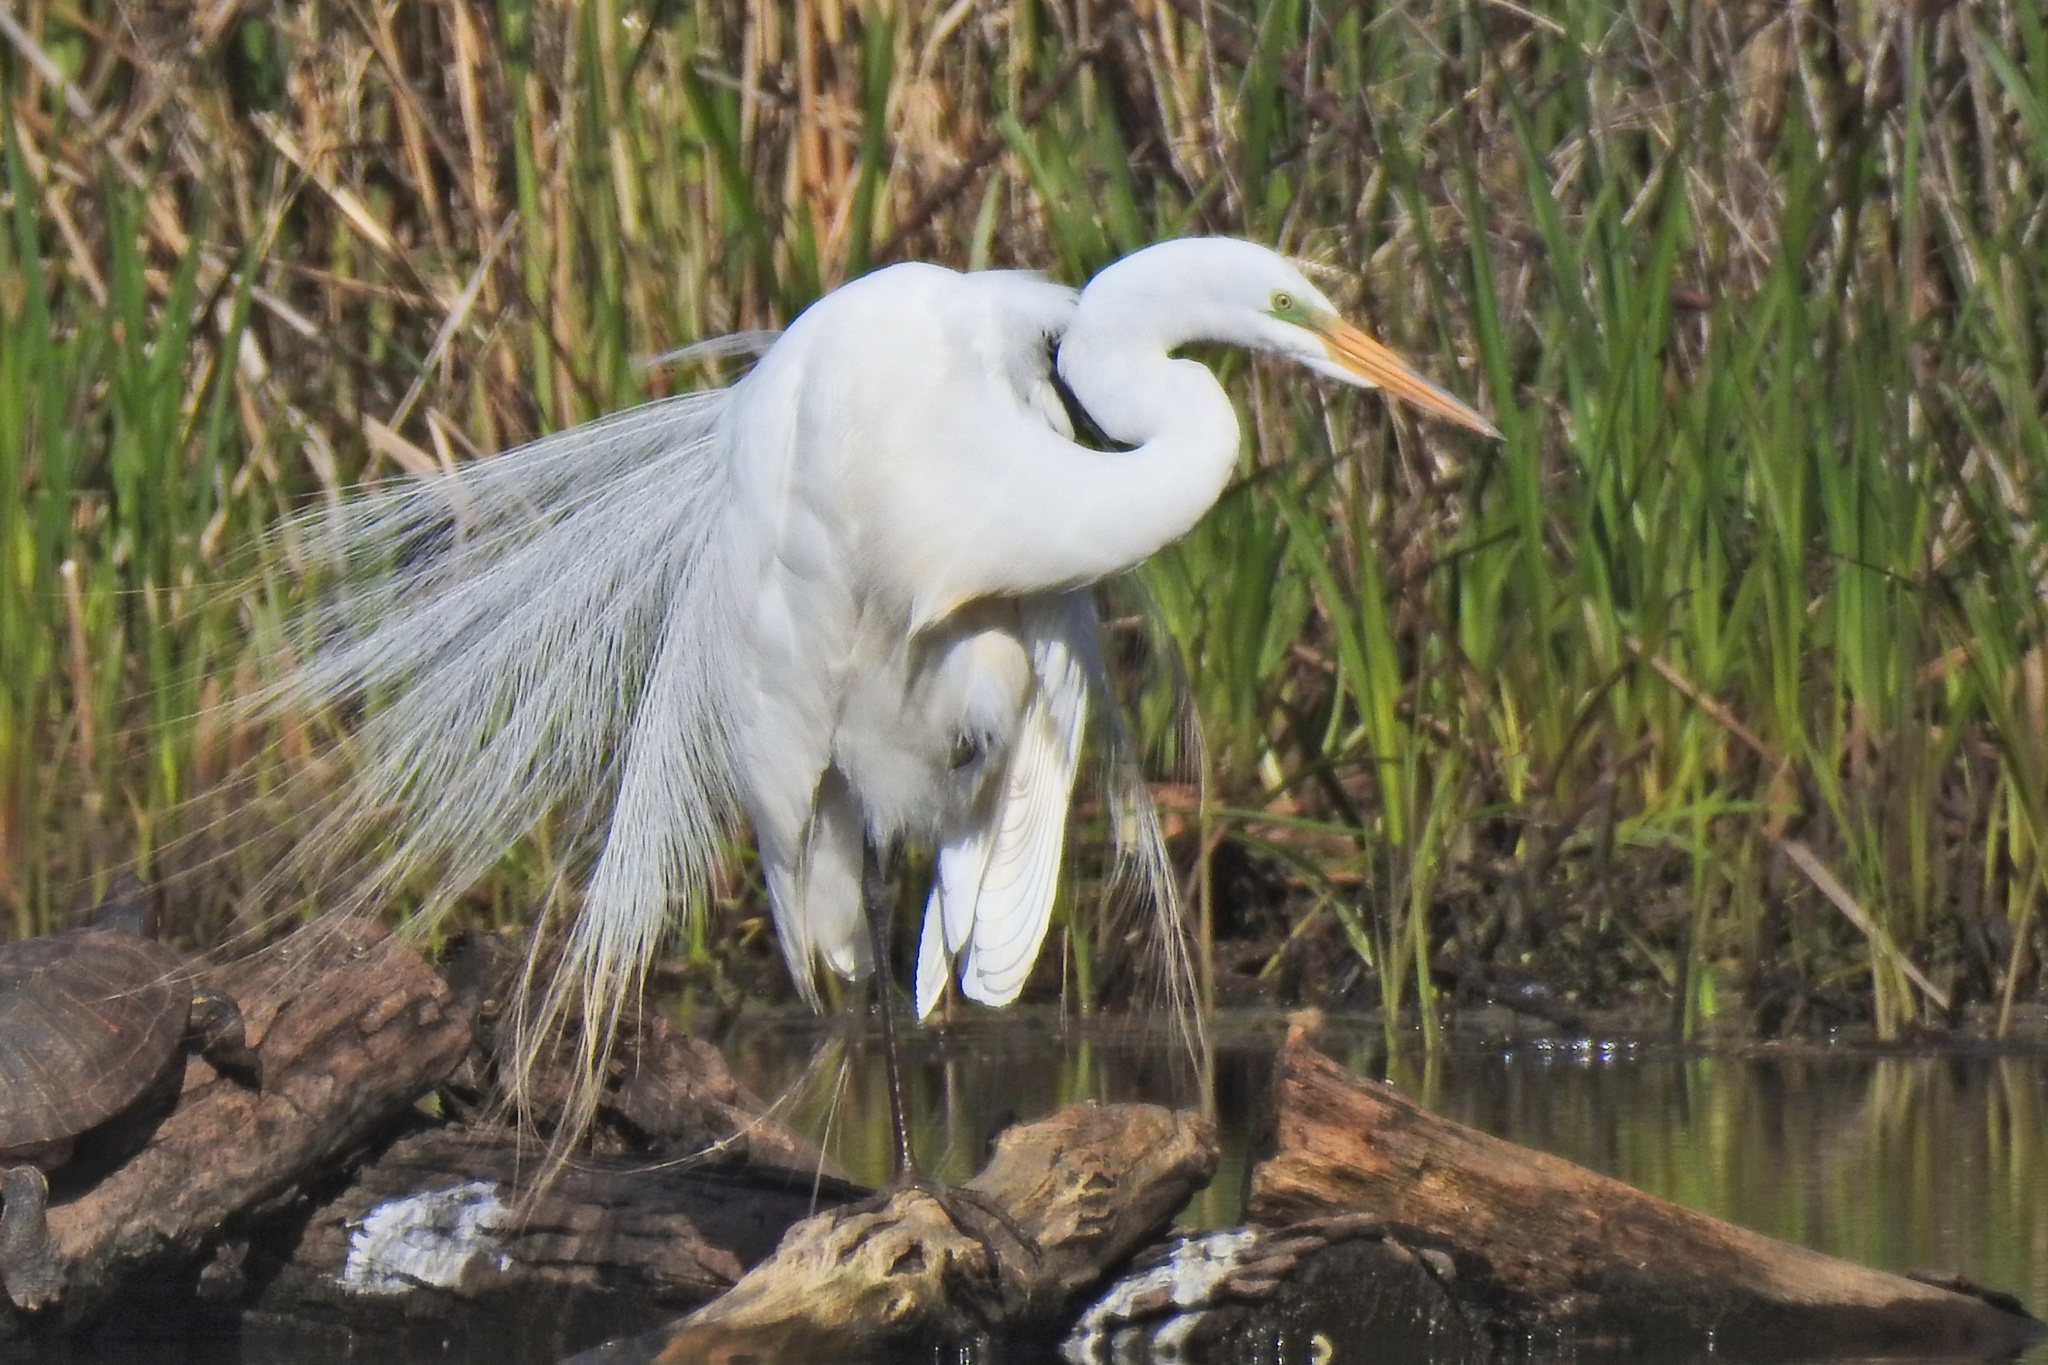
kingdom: Animalia
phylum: Chordata
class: Aves
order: Pelecaniformes
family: Ardeidae
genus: Ardea
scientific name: Ardea alba
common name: Great egret
